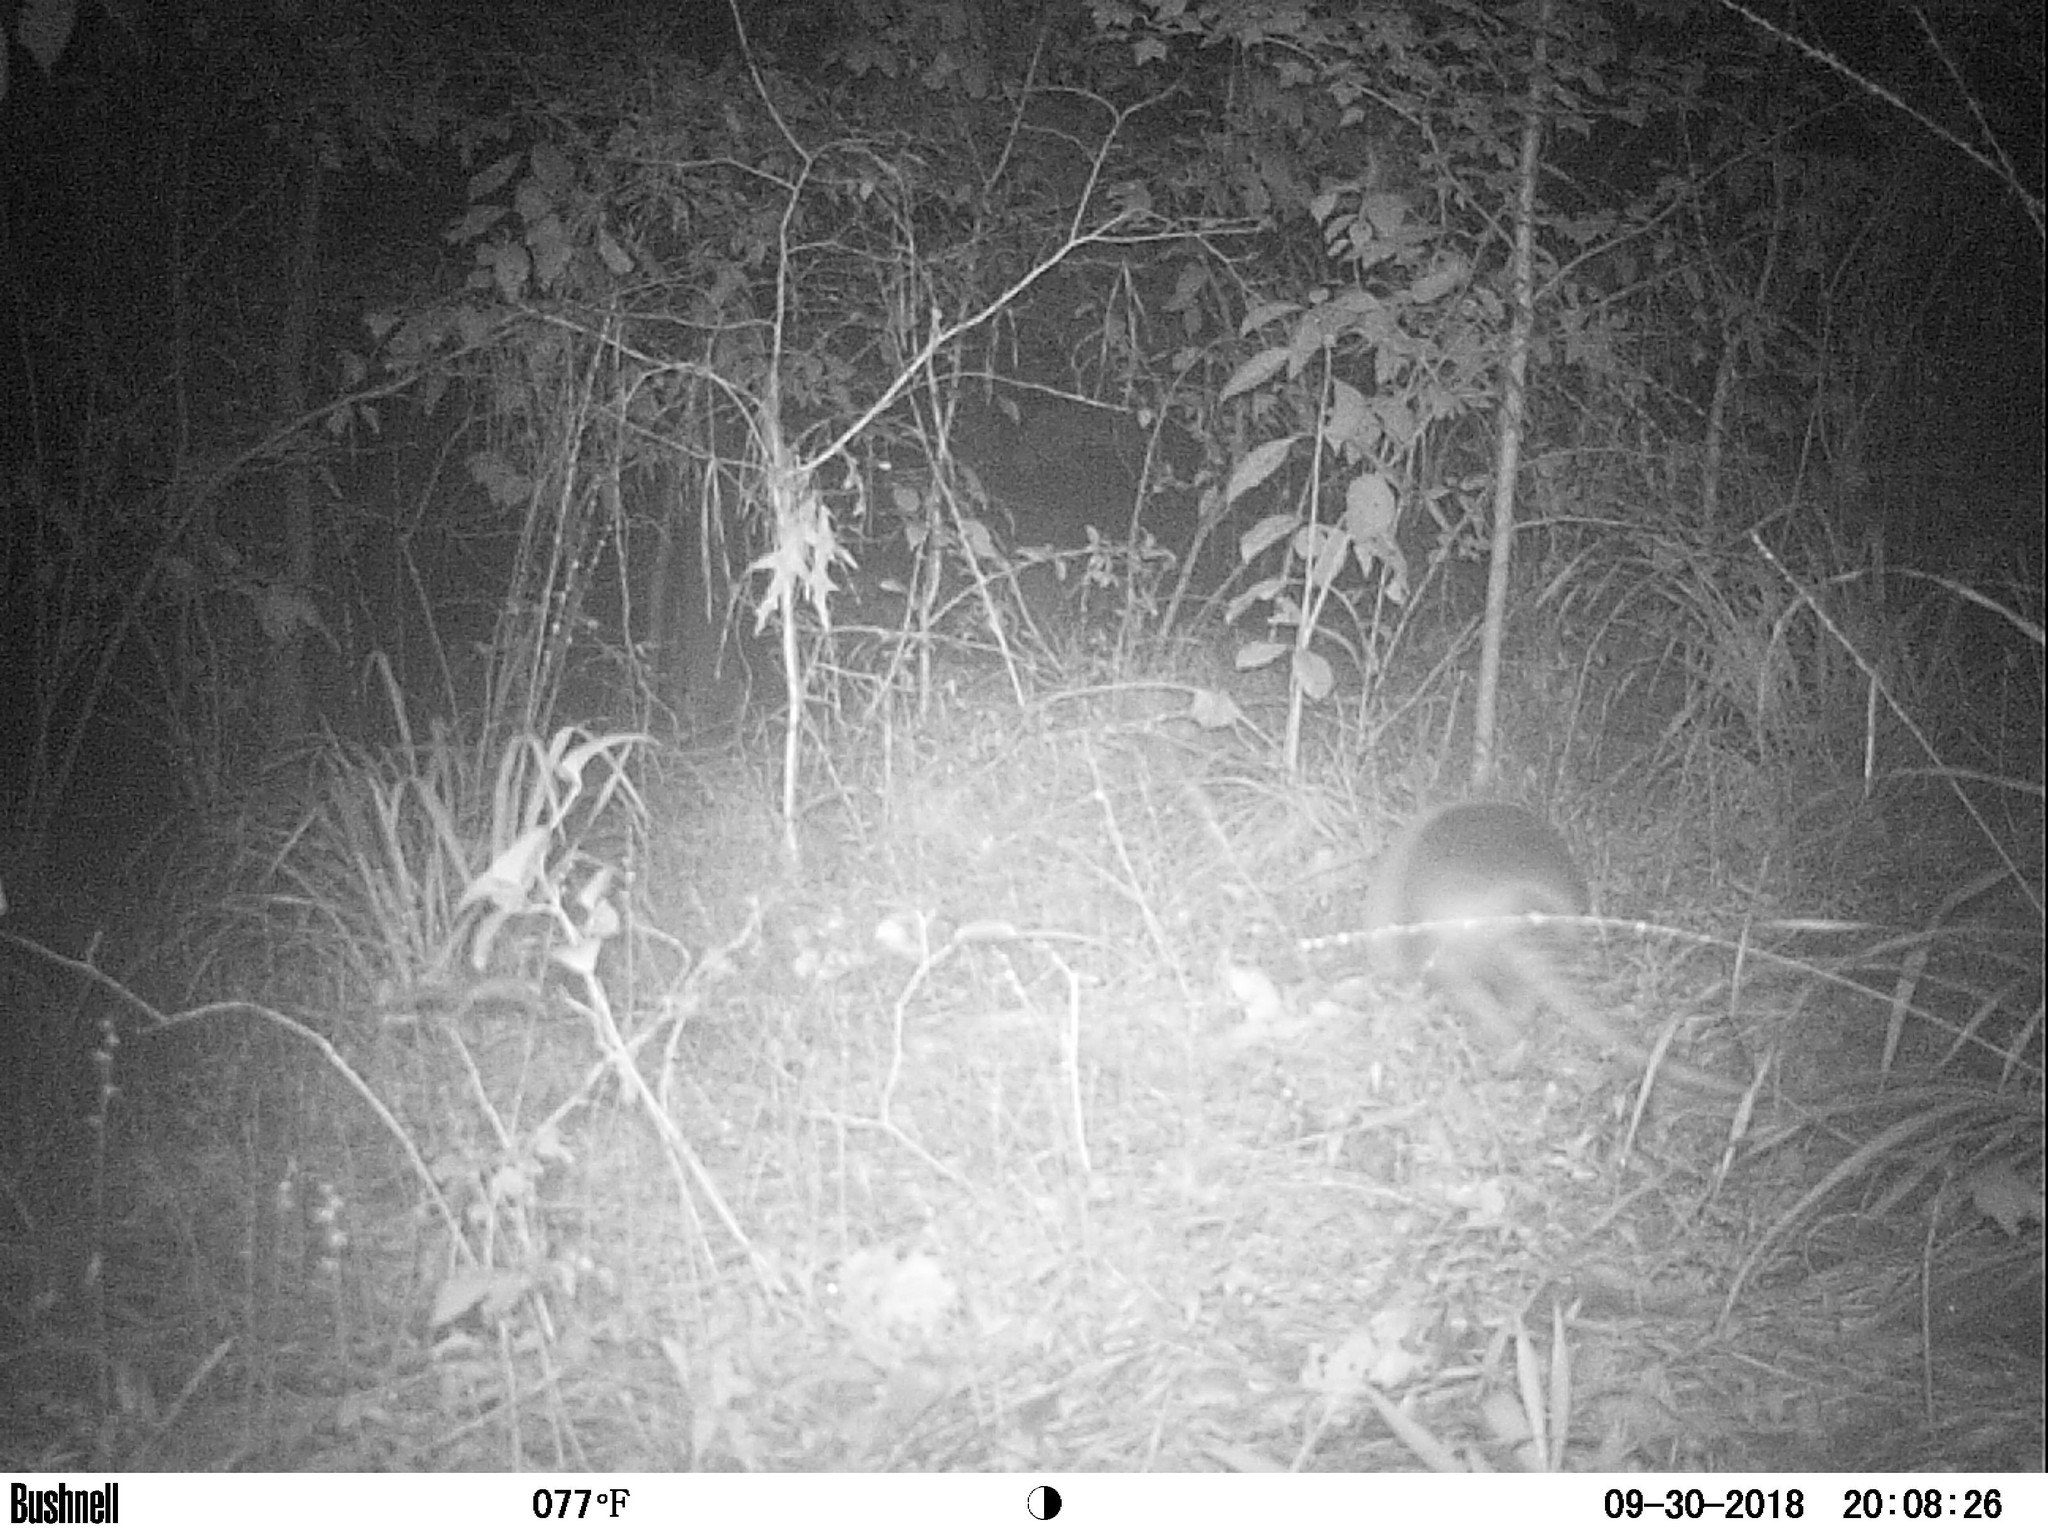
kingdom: Animalia
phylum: Chordata
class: Mammalia
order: Cingulata
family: Dasypodidae
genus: Dasypus
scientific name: Dasypus novemcinctus
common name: Nine-banded armadillo
